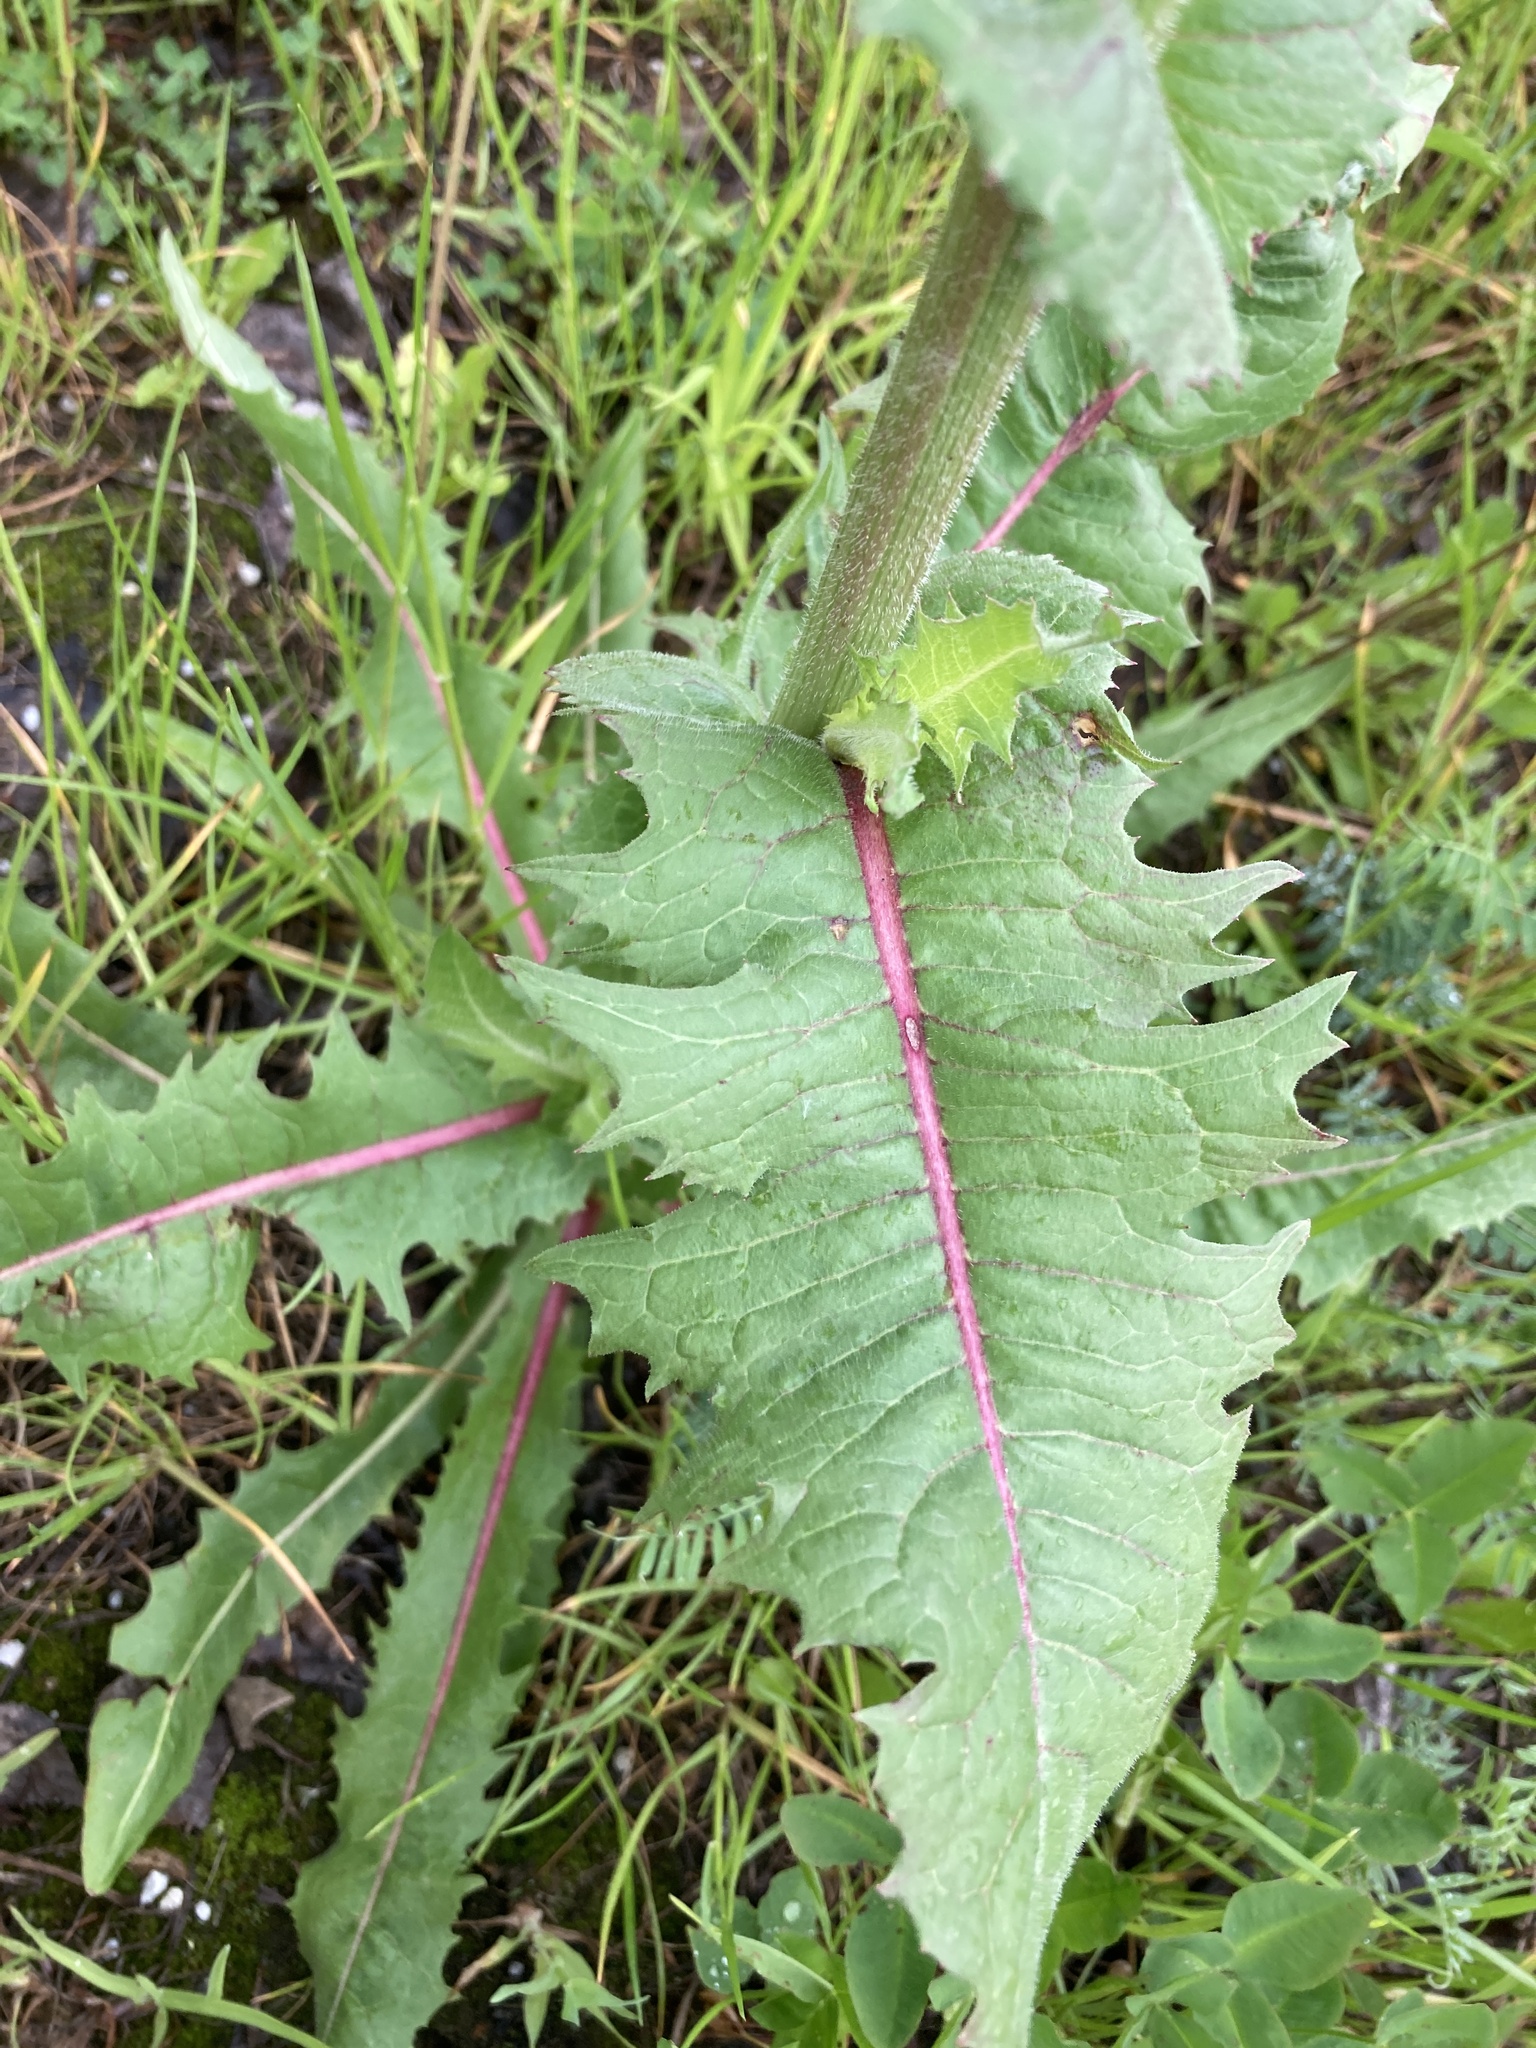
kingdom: Plantae
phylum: Tracheophyta
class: Magnoliopsida
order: Asterales
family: Asteraceae
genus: Cichorium
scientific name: Cichorium intybus
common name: Chicory
